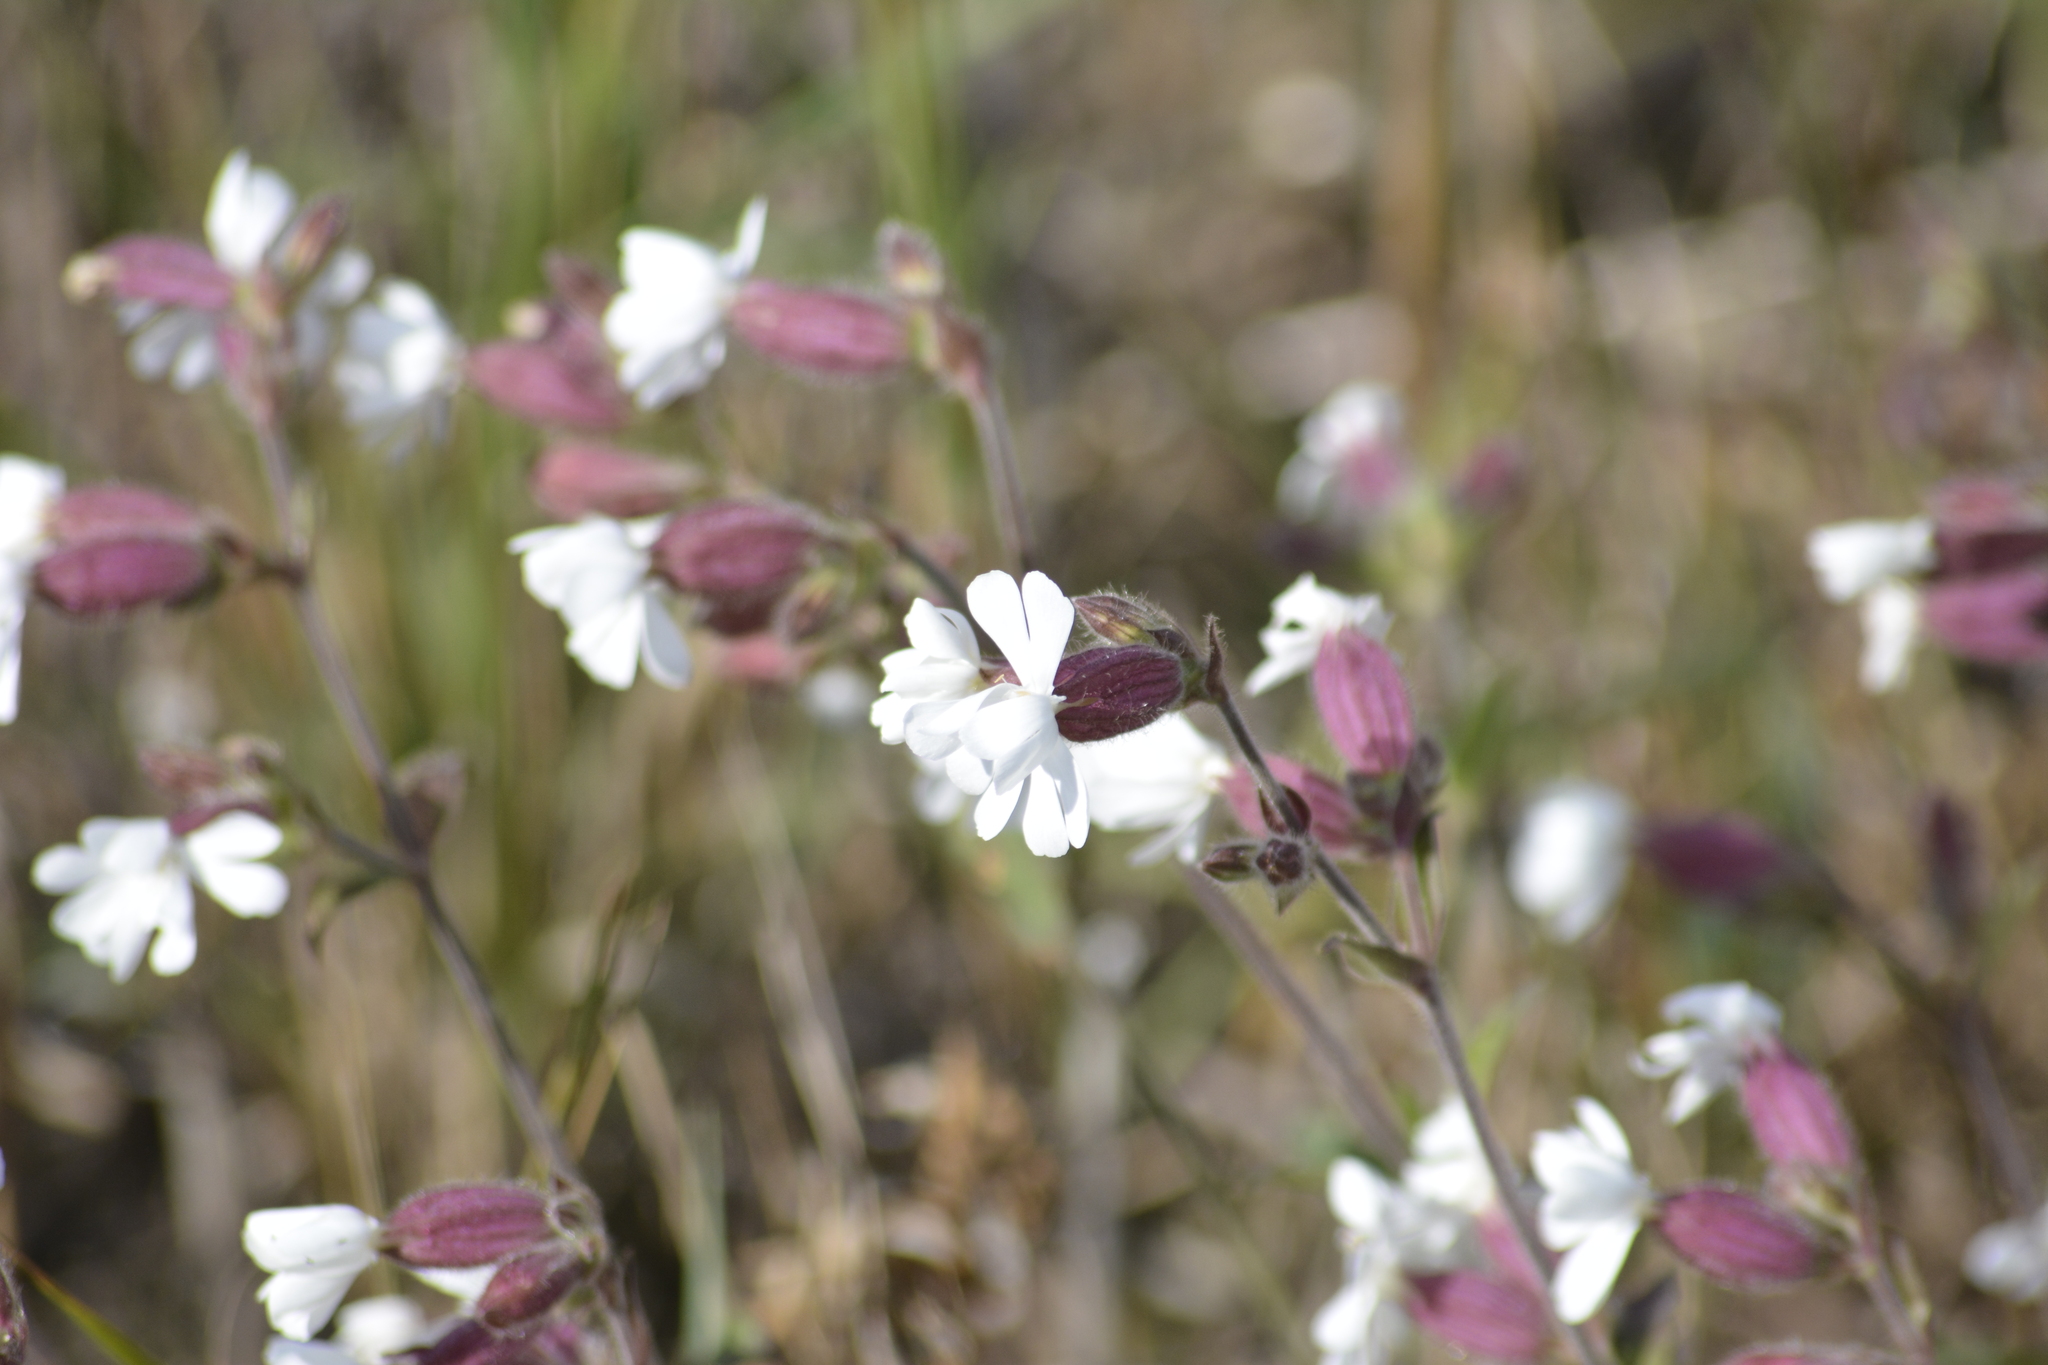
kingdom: Plantae
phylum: Tracheophyta
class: Magnoliopsida
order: Caryophyllales
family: Caryophyllaceae
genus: Silene
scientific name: Silene latifolia
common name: White campion
